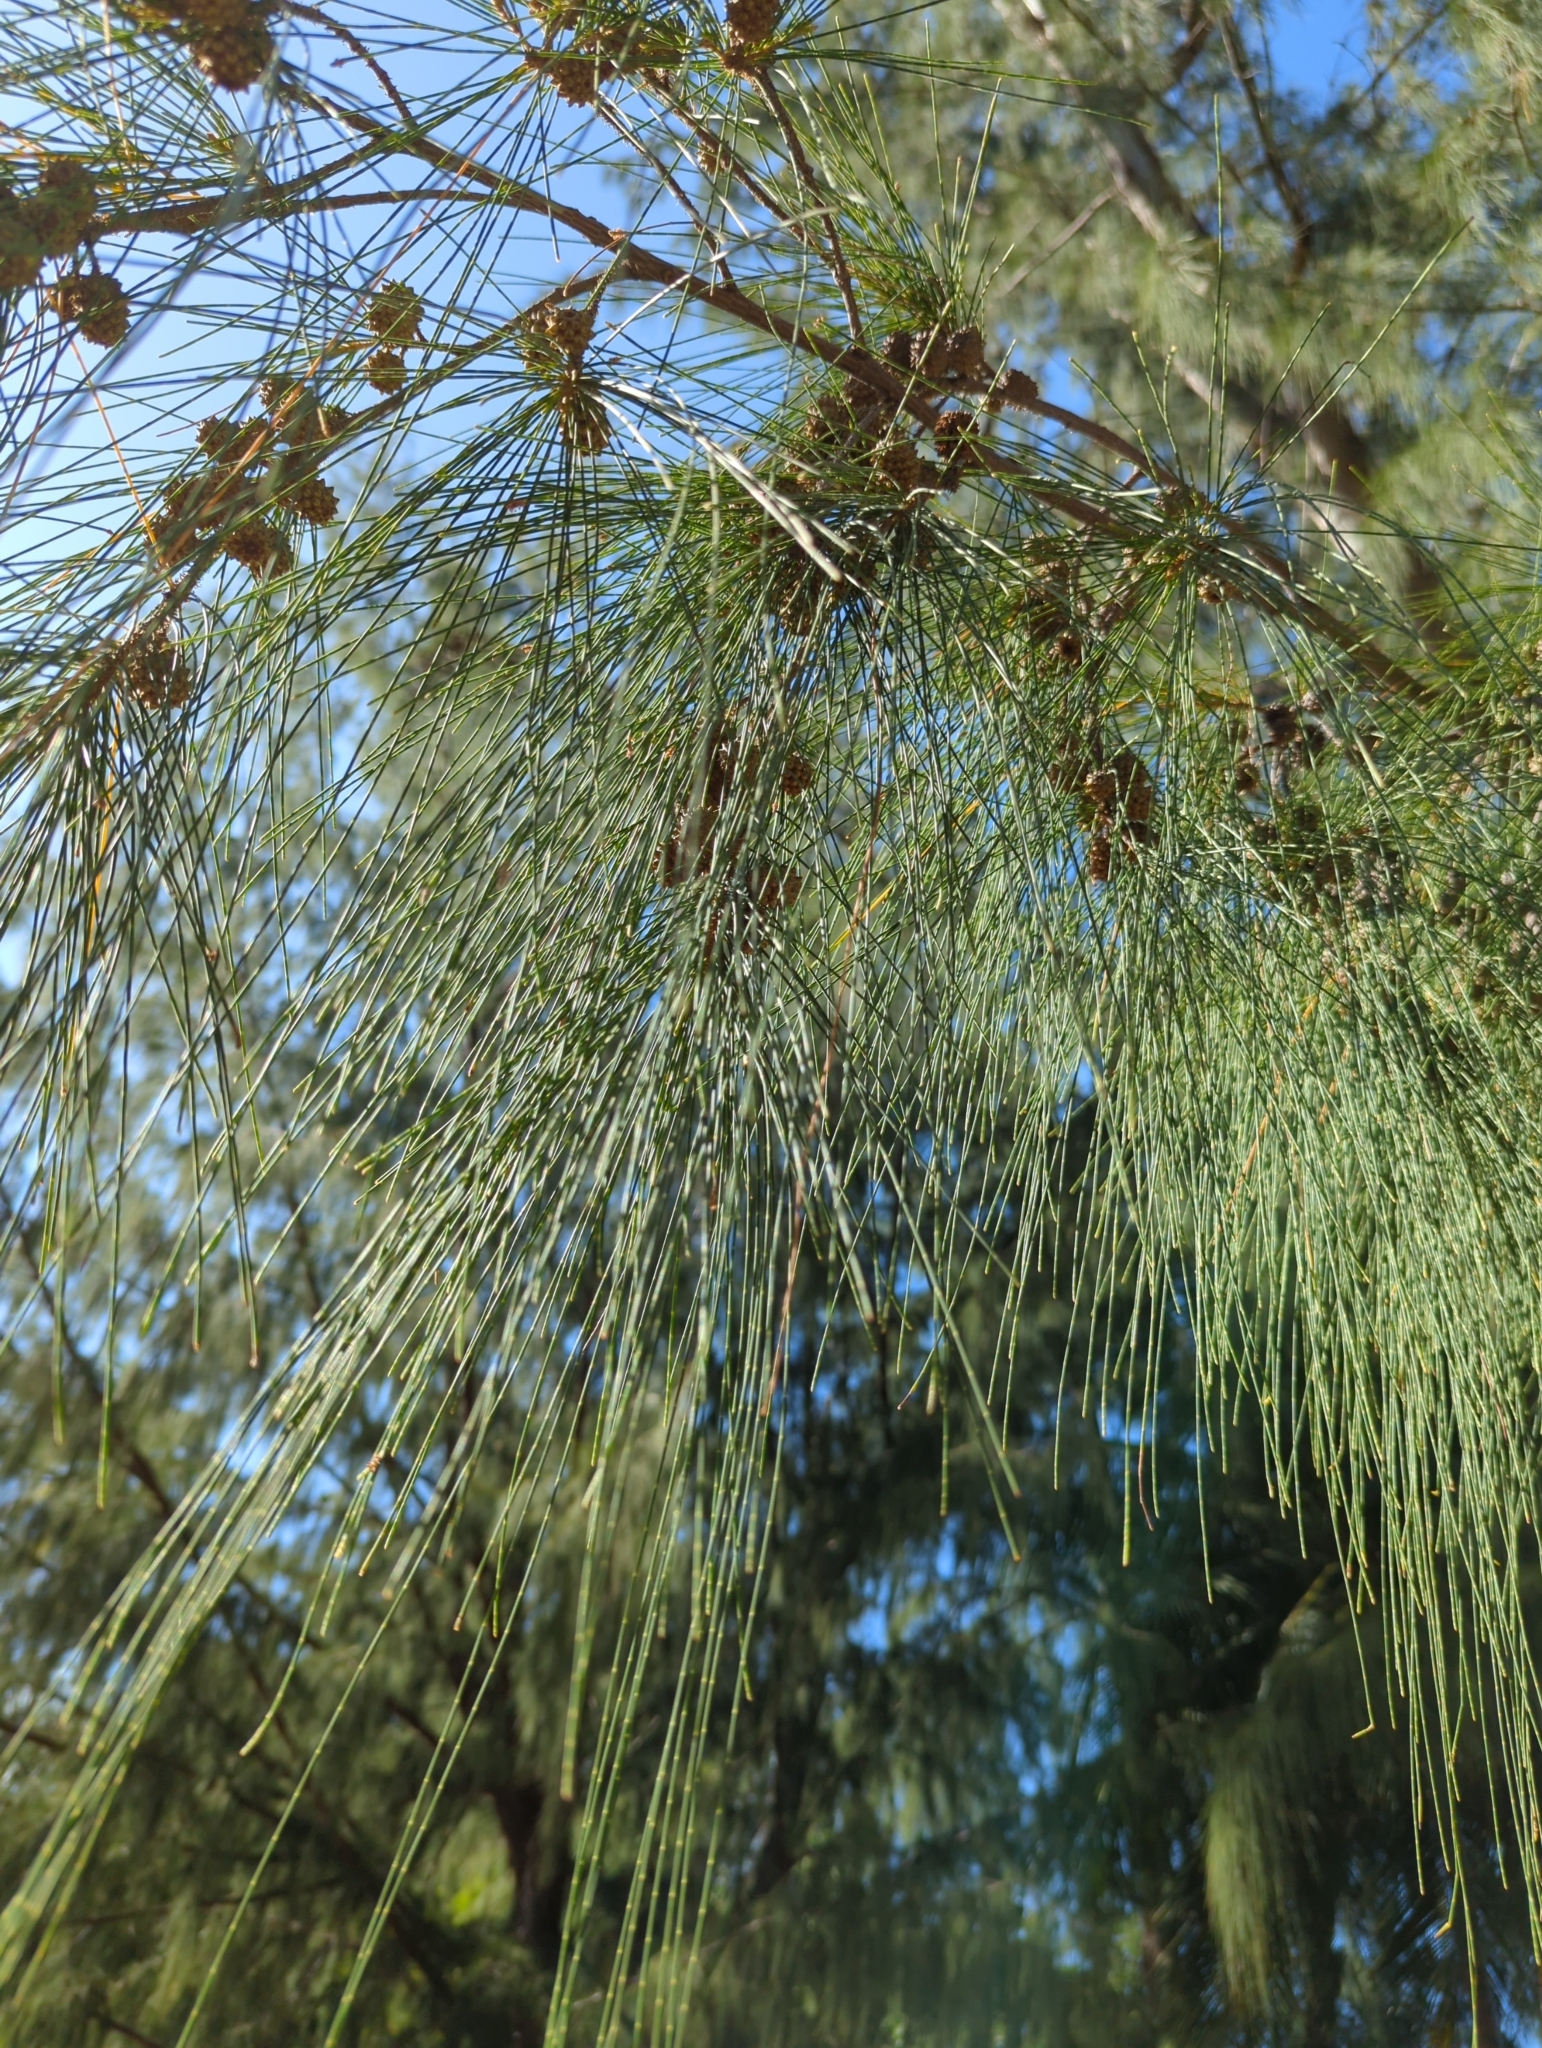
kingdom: Plantae
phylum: Tracheophyta
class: Magnoliopsida
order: Fagales
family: Casuarinaceae
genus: Casuarina
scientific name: Casuarina equisetifolia
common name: Beach sheoak
